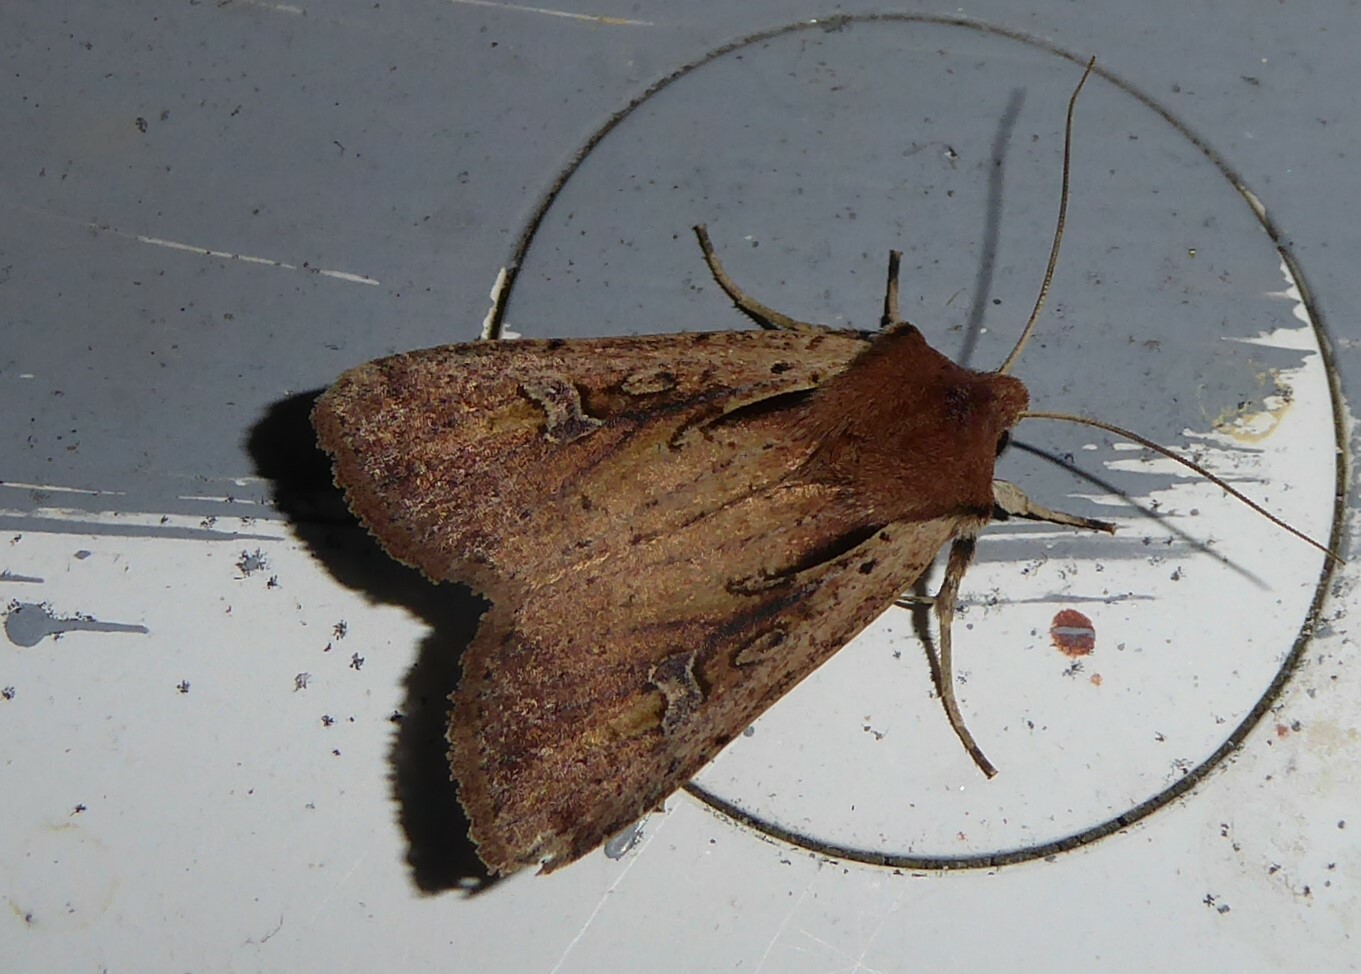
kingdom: Animalia
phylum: Arthropoda
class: Insecta
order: Lepidoptera
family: Noctuidae
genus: Ichneutica
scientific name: Ichneutica atristriga
